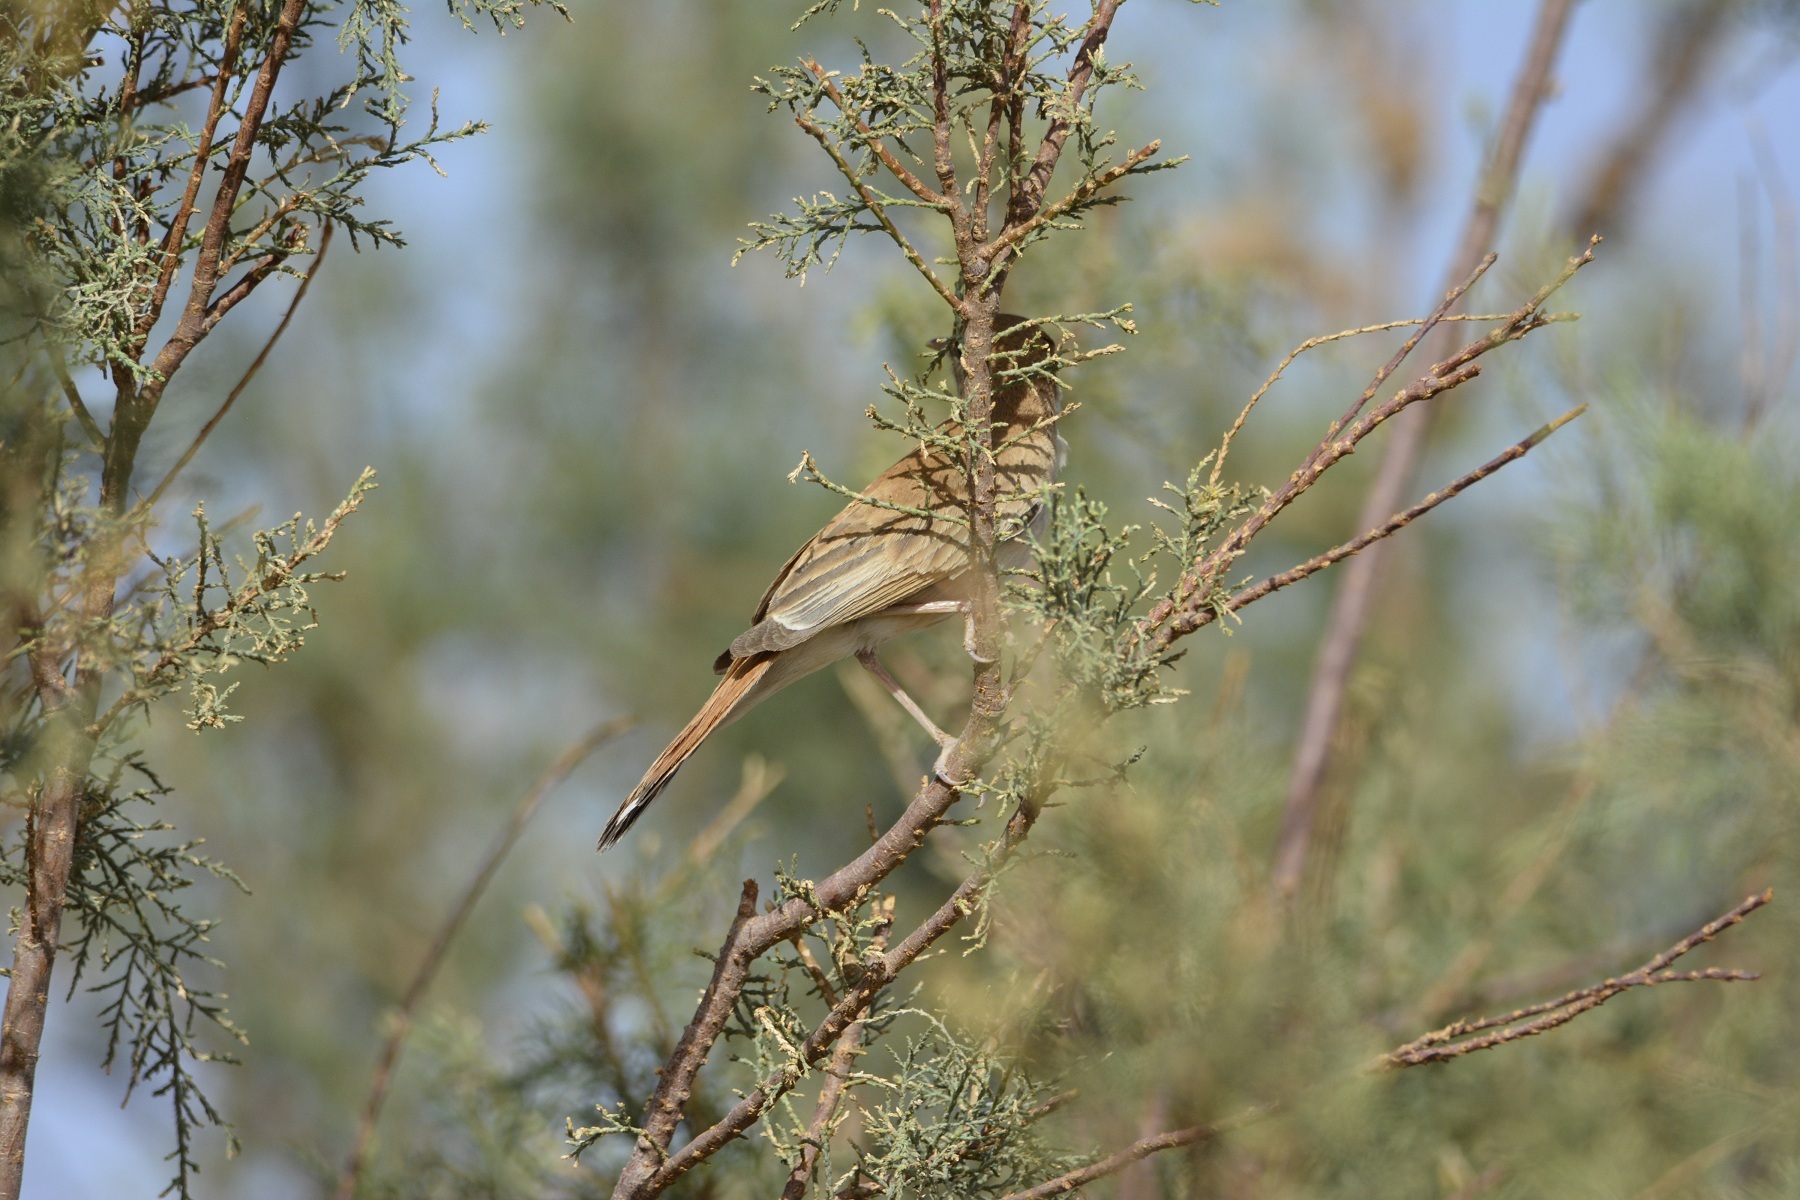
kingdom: Animalia
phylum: Chordata
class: Aves
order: Passeriformes
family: Muscicapidae
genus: Erythropygia
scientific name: Erythropygia galactotes
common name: Rufous-tailed scrub robin
